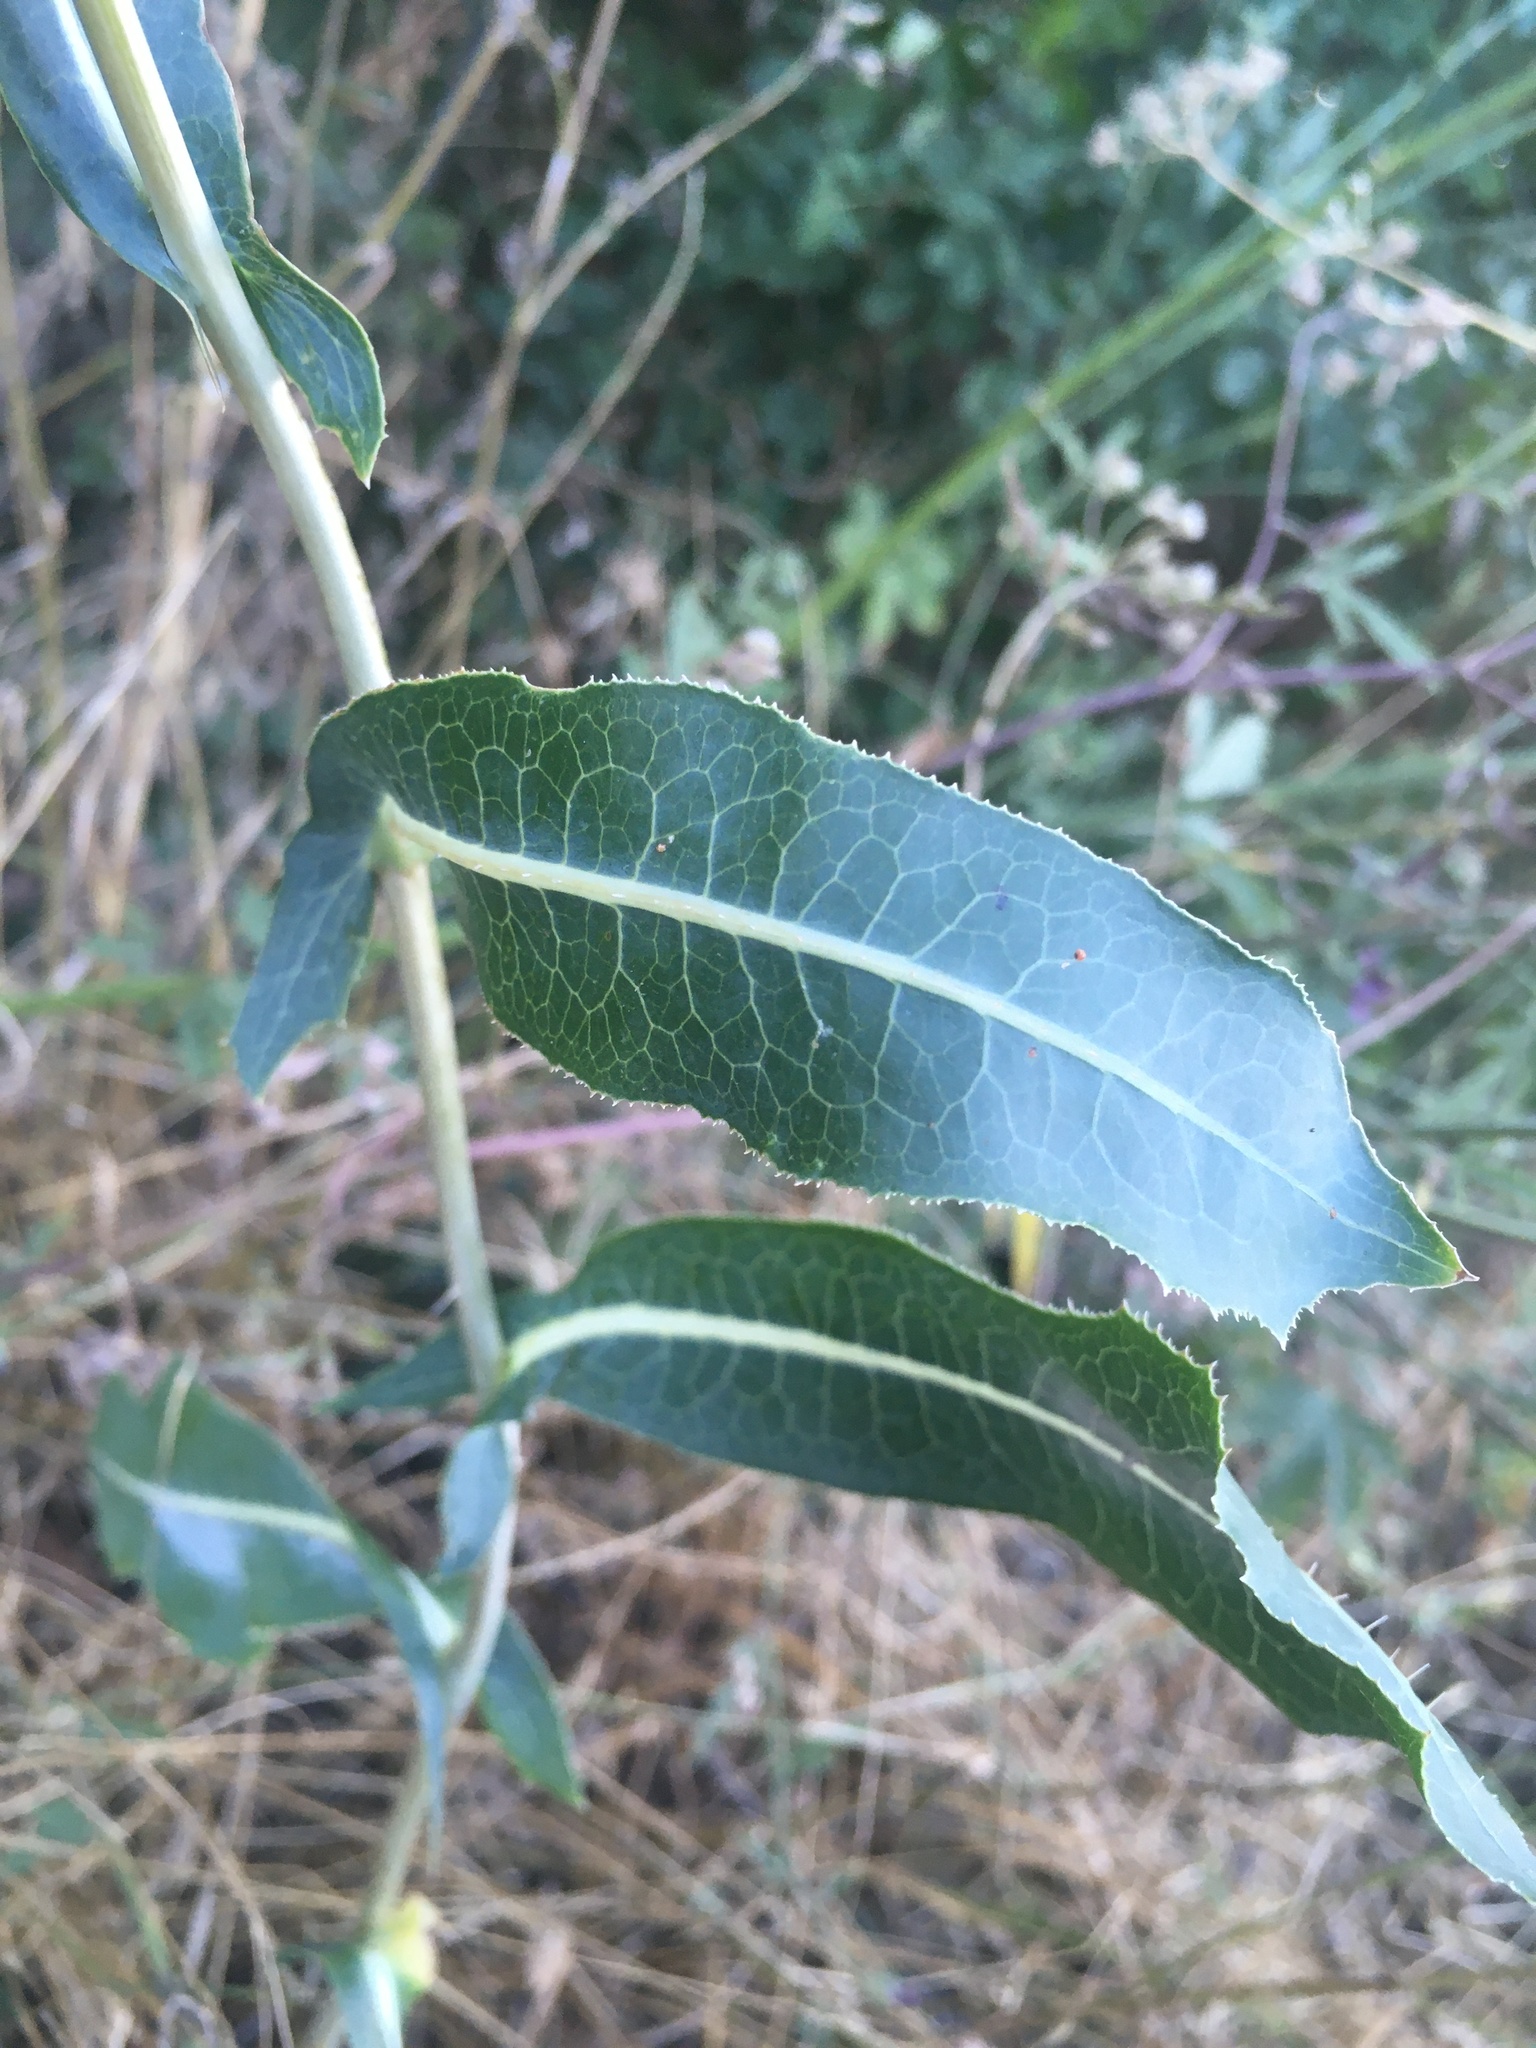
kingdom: Plantae
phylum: Tracheophyta
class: Magnoliopsida
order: Asterales
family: Asteraceae
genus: Lactuca
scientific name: Lactuca serriola
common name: Prickly lettuce
